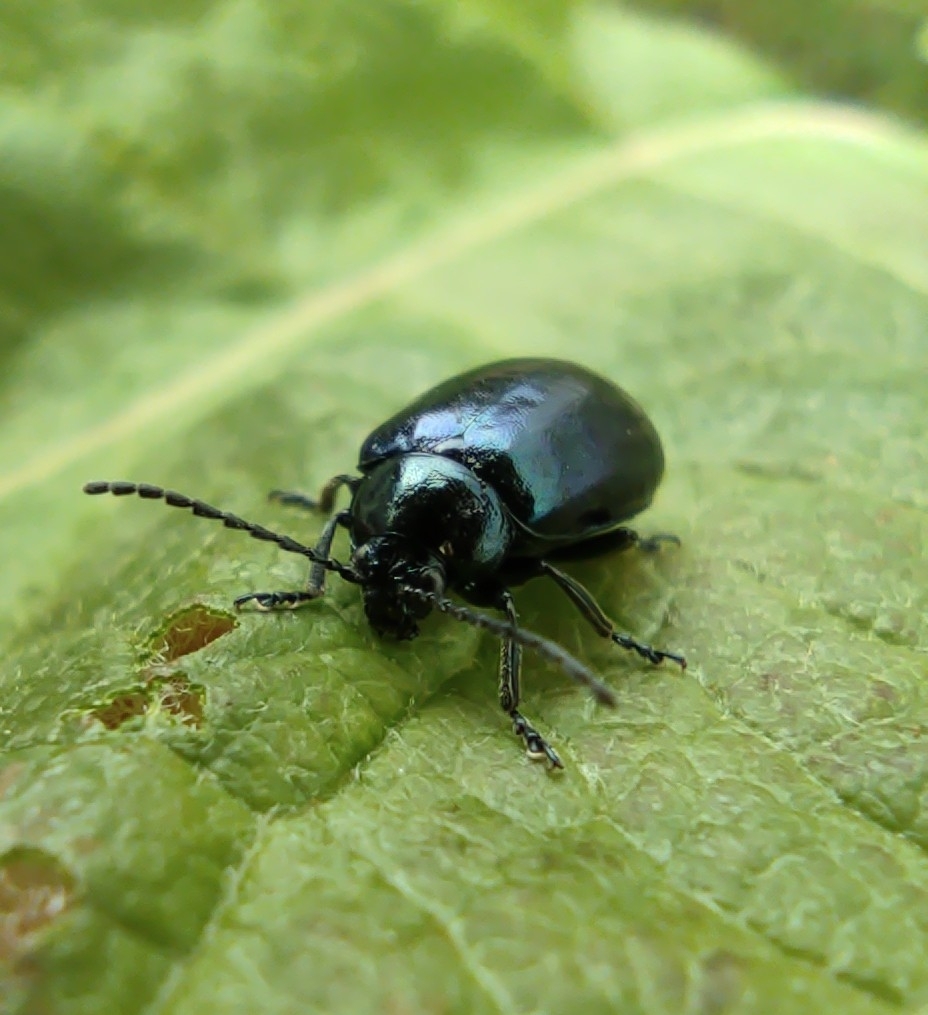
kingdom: Animalia
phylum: Arthropoda
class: Insecta
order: Coleoptera
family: Chrysomelidae
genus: Agelastica
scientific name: Agelastica alni
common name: Alder leaf beetle
